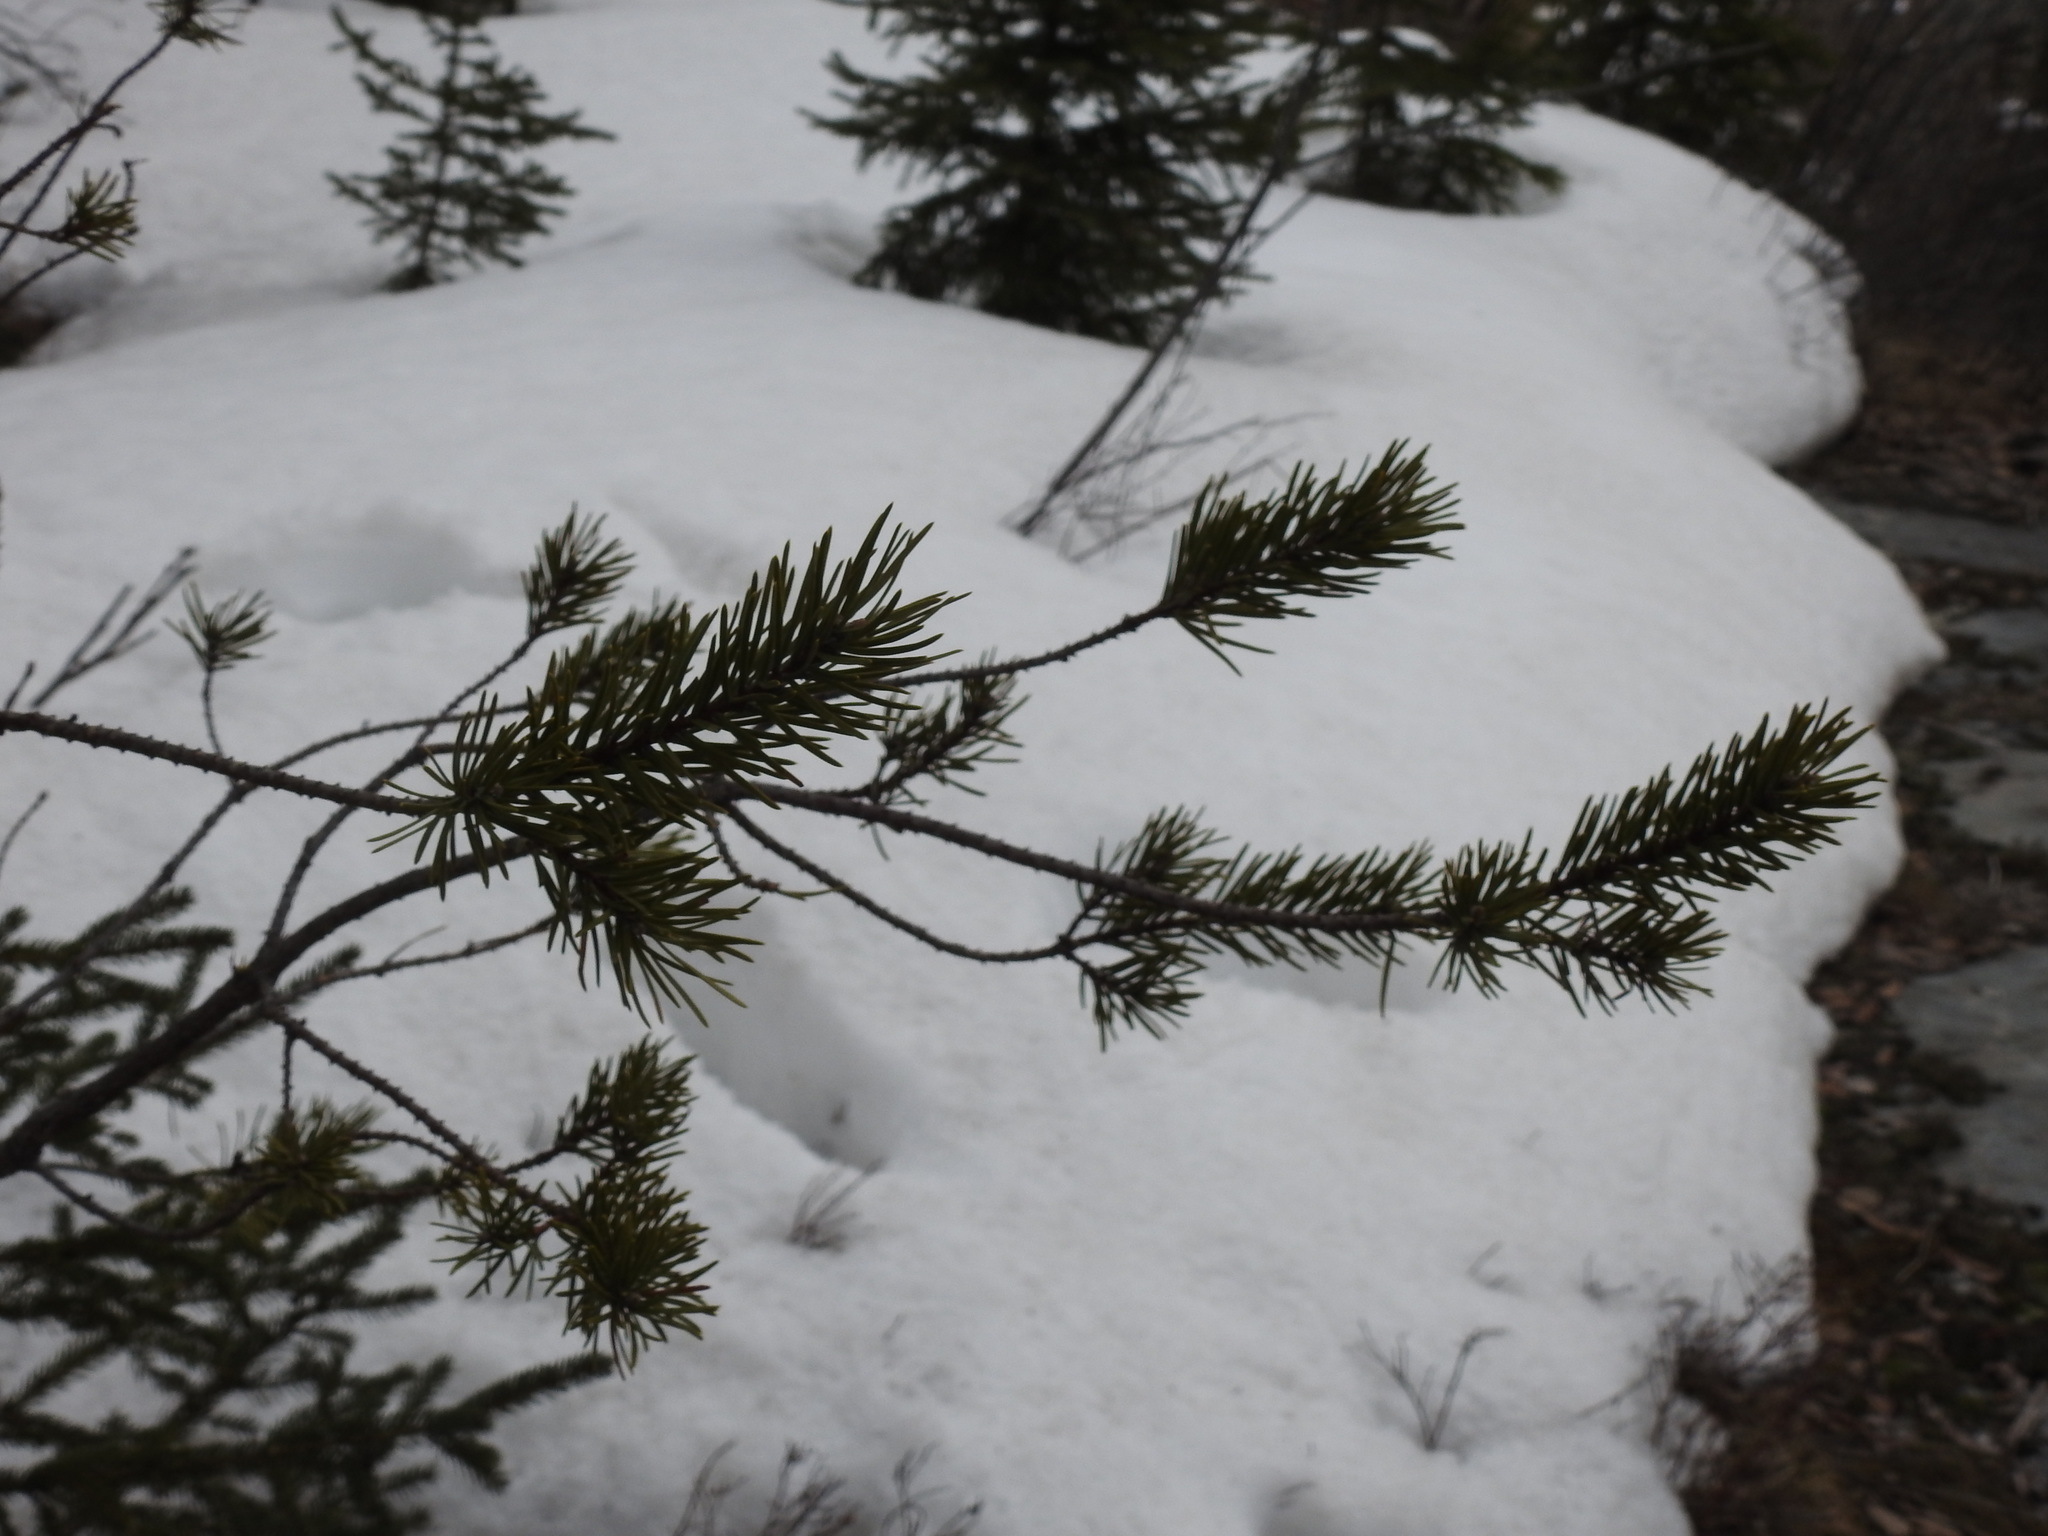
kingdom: Plantae
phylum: Tracheophyta
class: Pinopsida
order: Pinales
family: Pinaceae
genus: Pinus
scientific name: Pinus banksiana
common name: Jack pine
